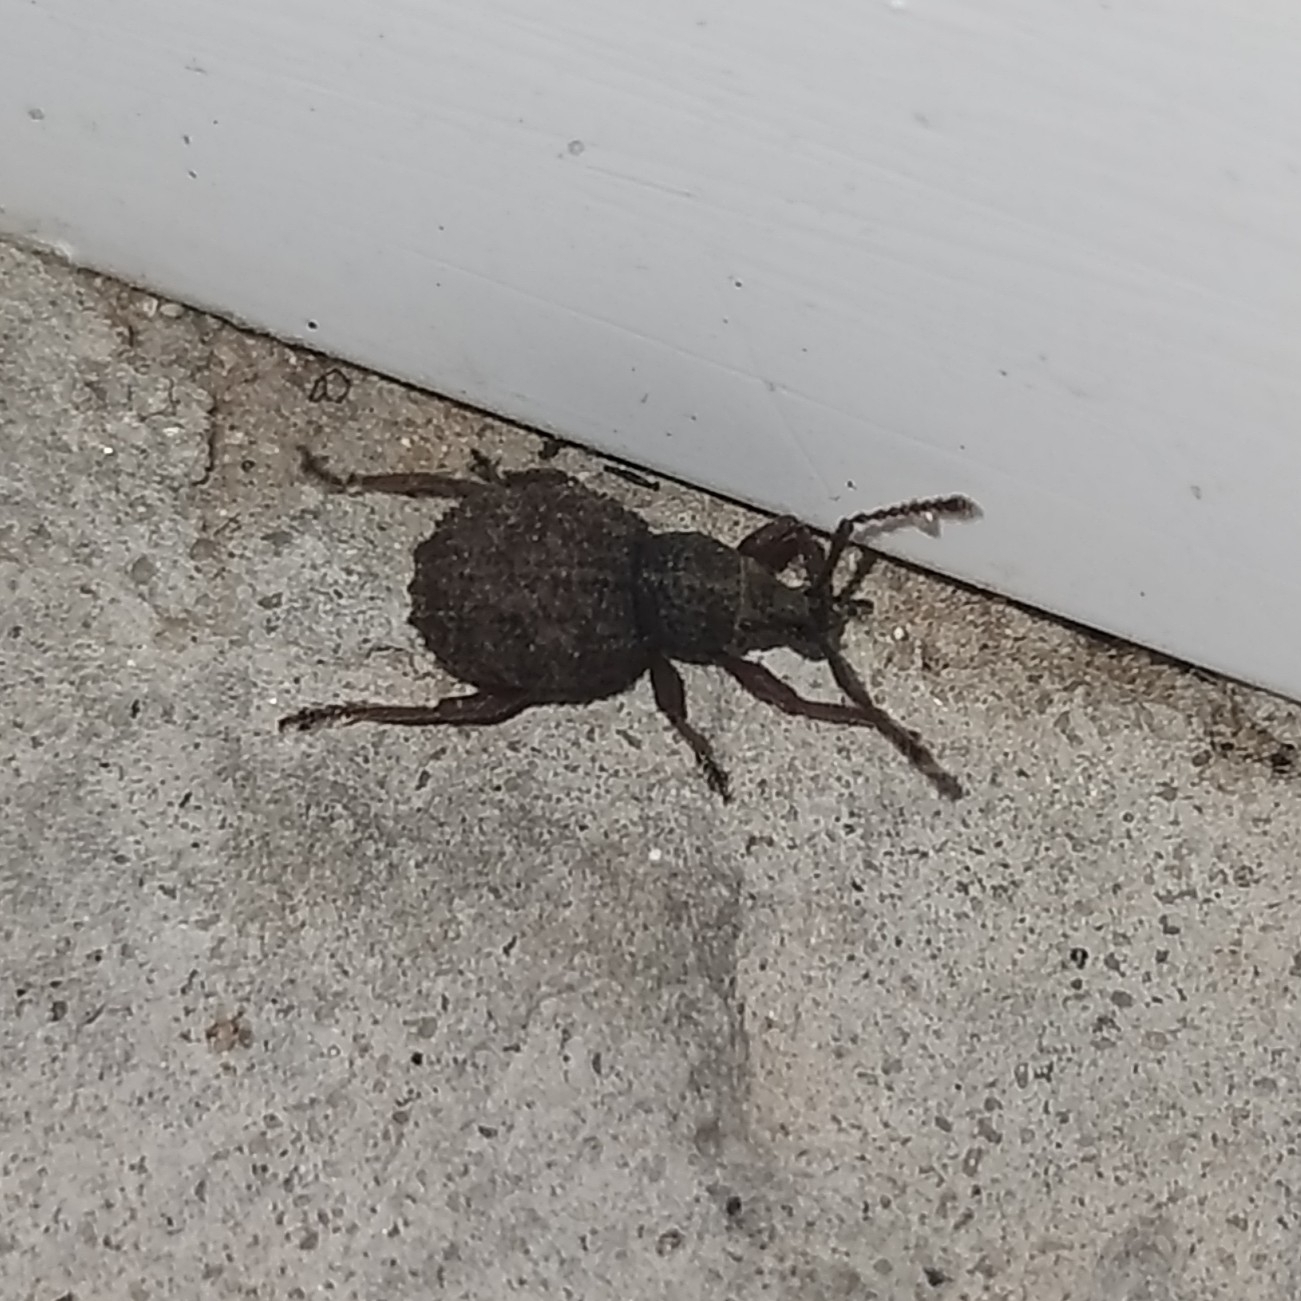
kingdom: Animalia
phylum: Arthropoda
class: Insecta
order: Coleoptera
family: Curculionidae
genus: Otiorhynchus
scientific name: Otiorhynchus porcatus
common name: Weevil
